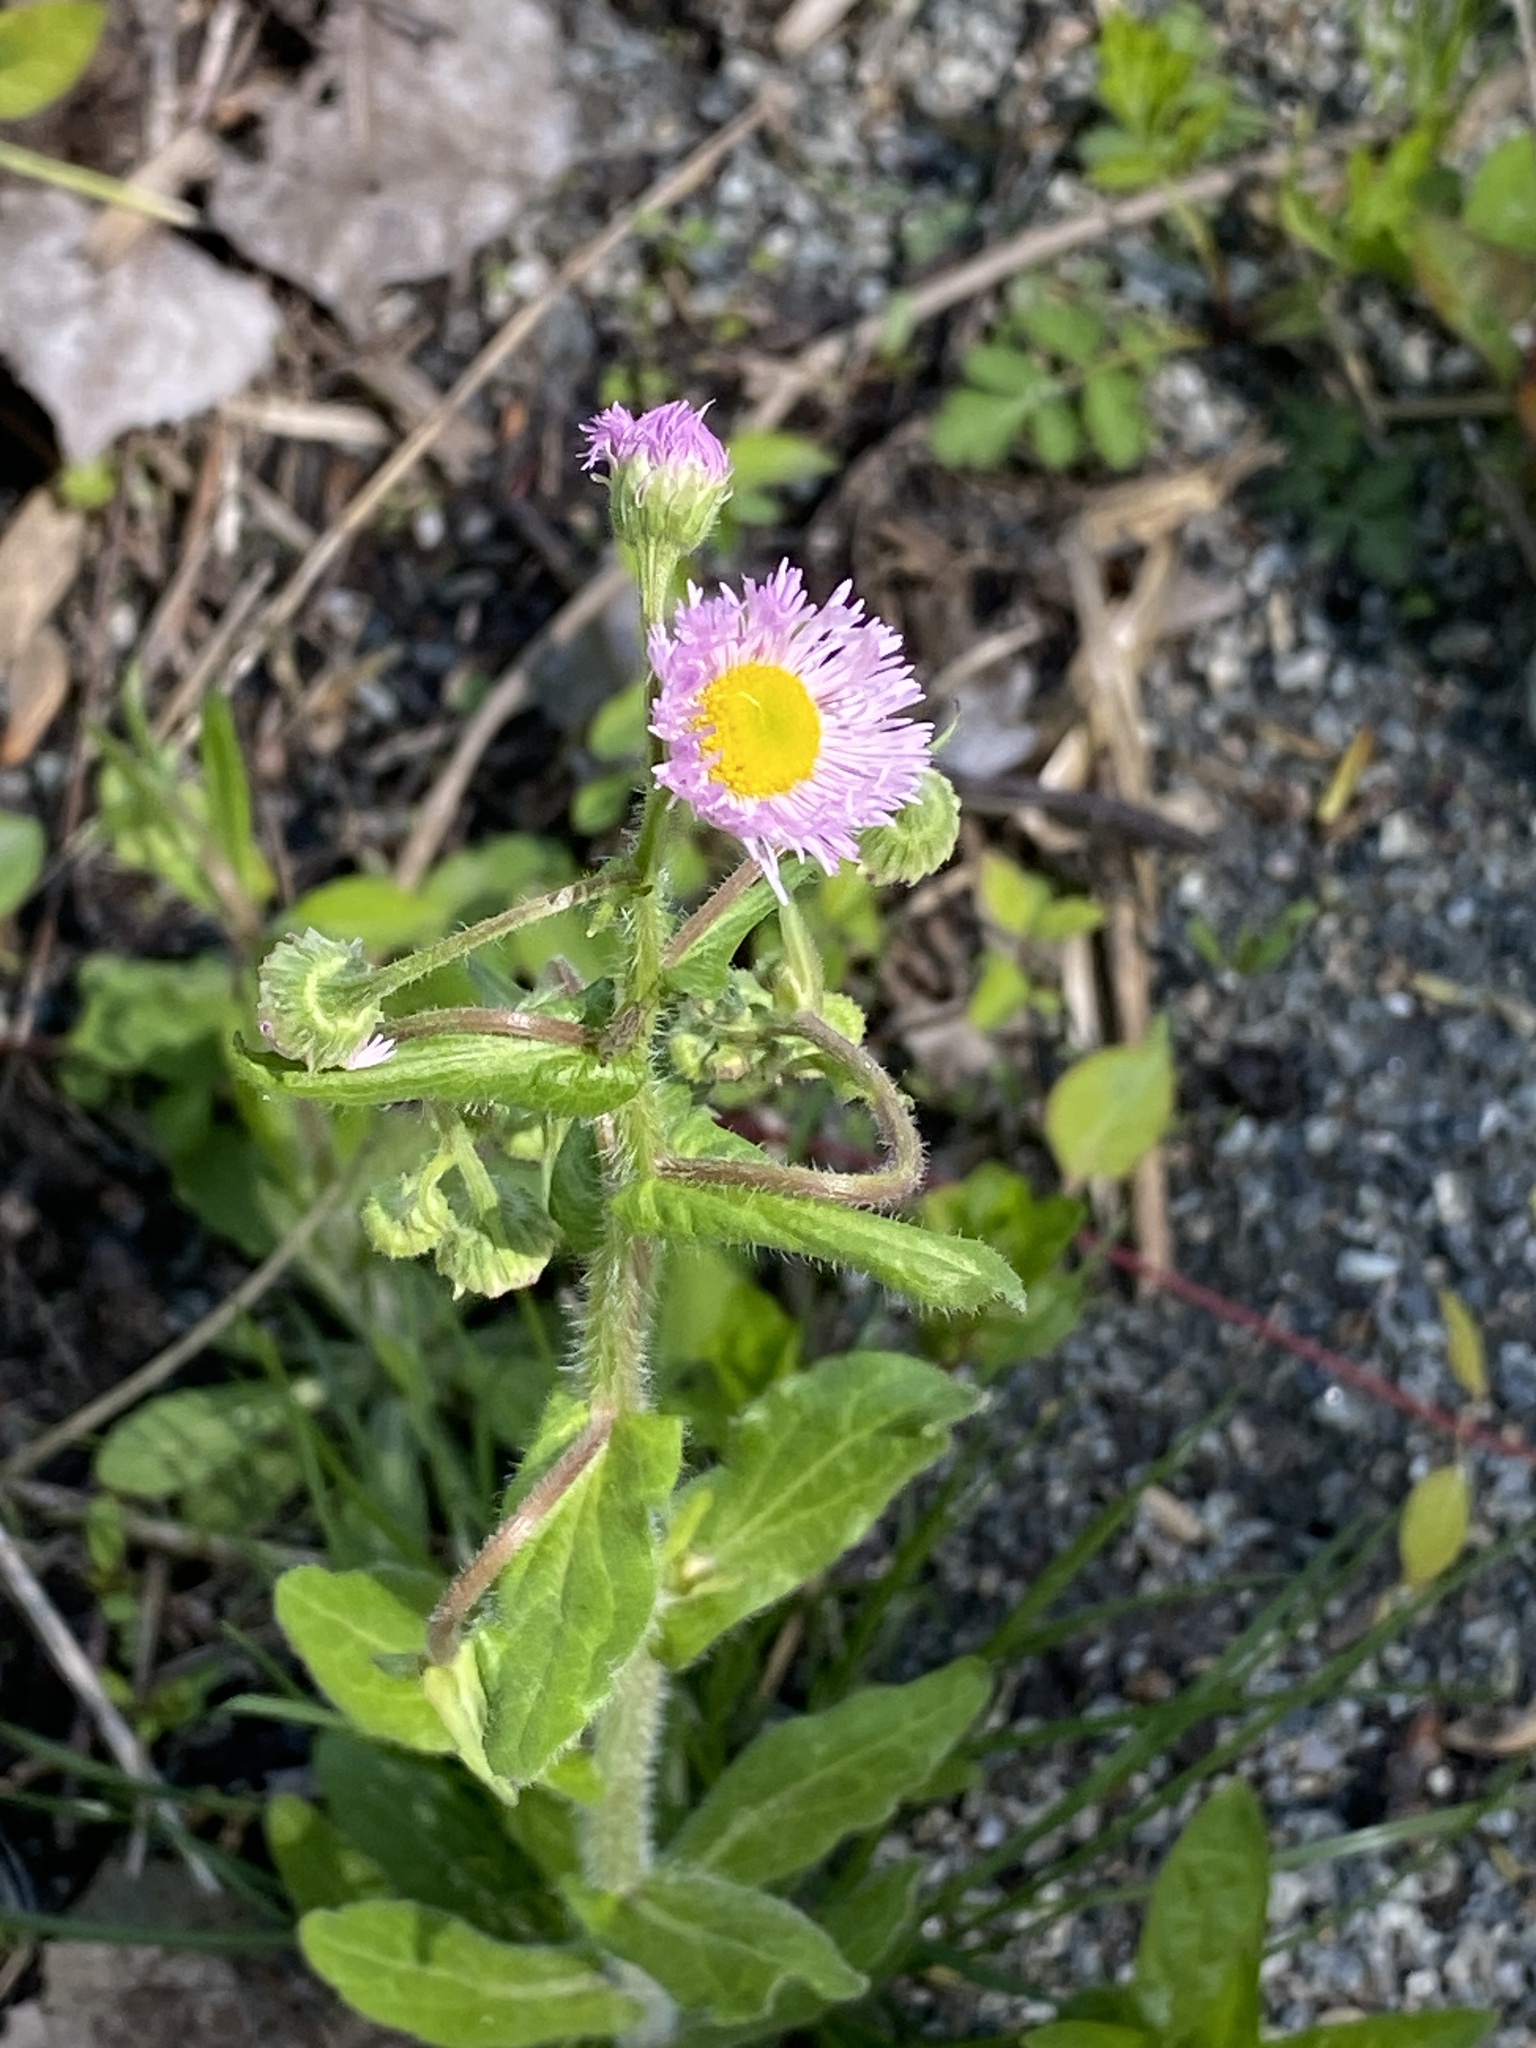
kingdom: Plantae
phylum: Tracheophyta
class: Magnoliopsida
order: Asterales
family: Asteraceae
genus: Erigeron
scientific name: Erigeron philadelphicus
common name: Robin's-plantain
